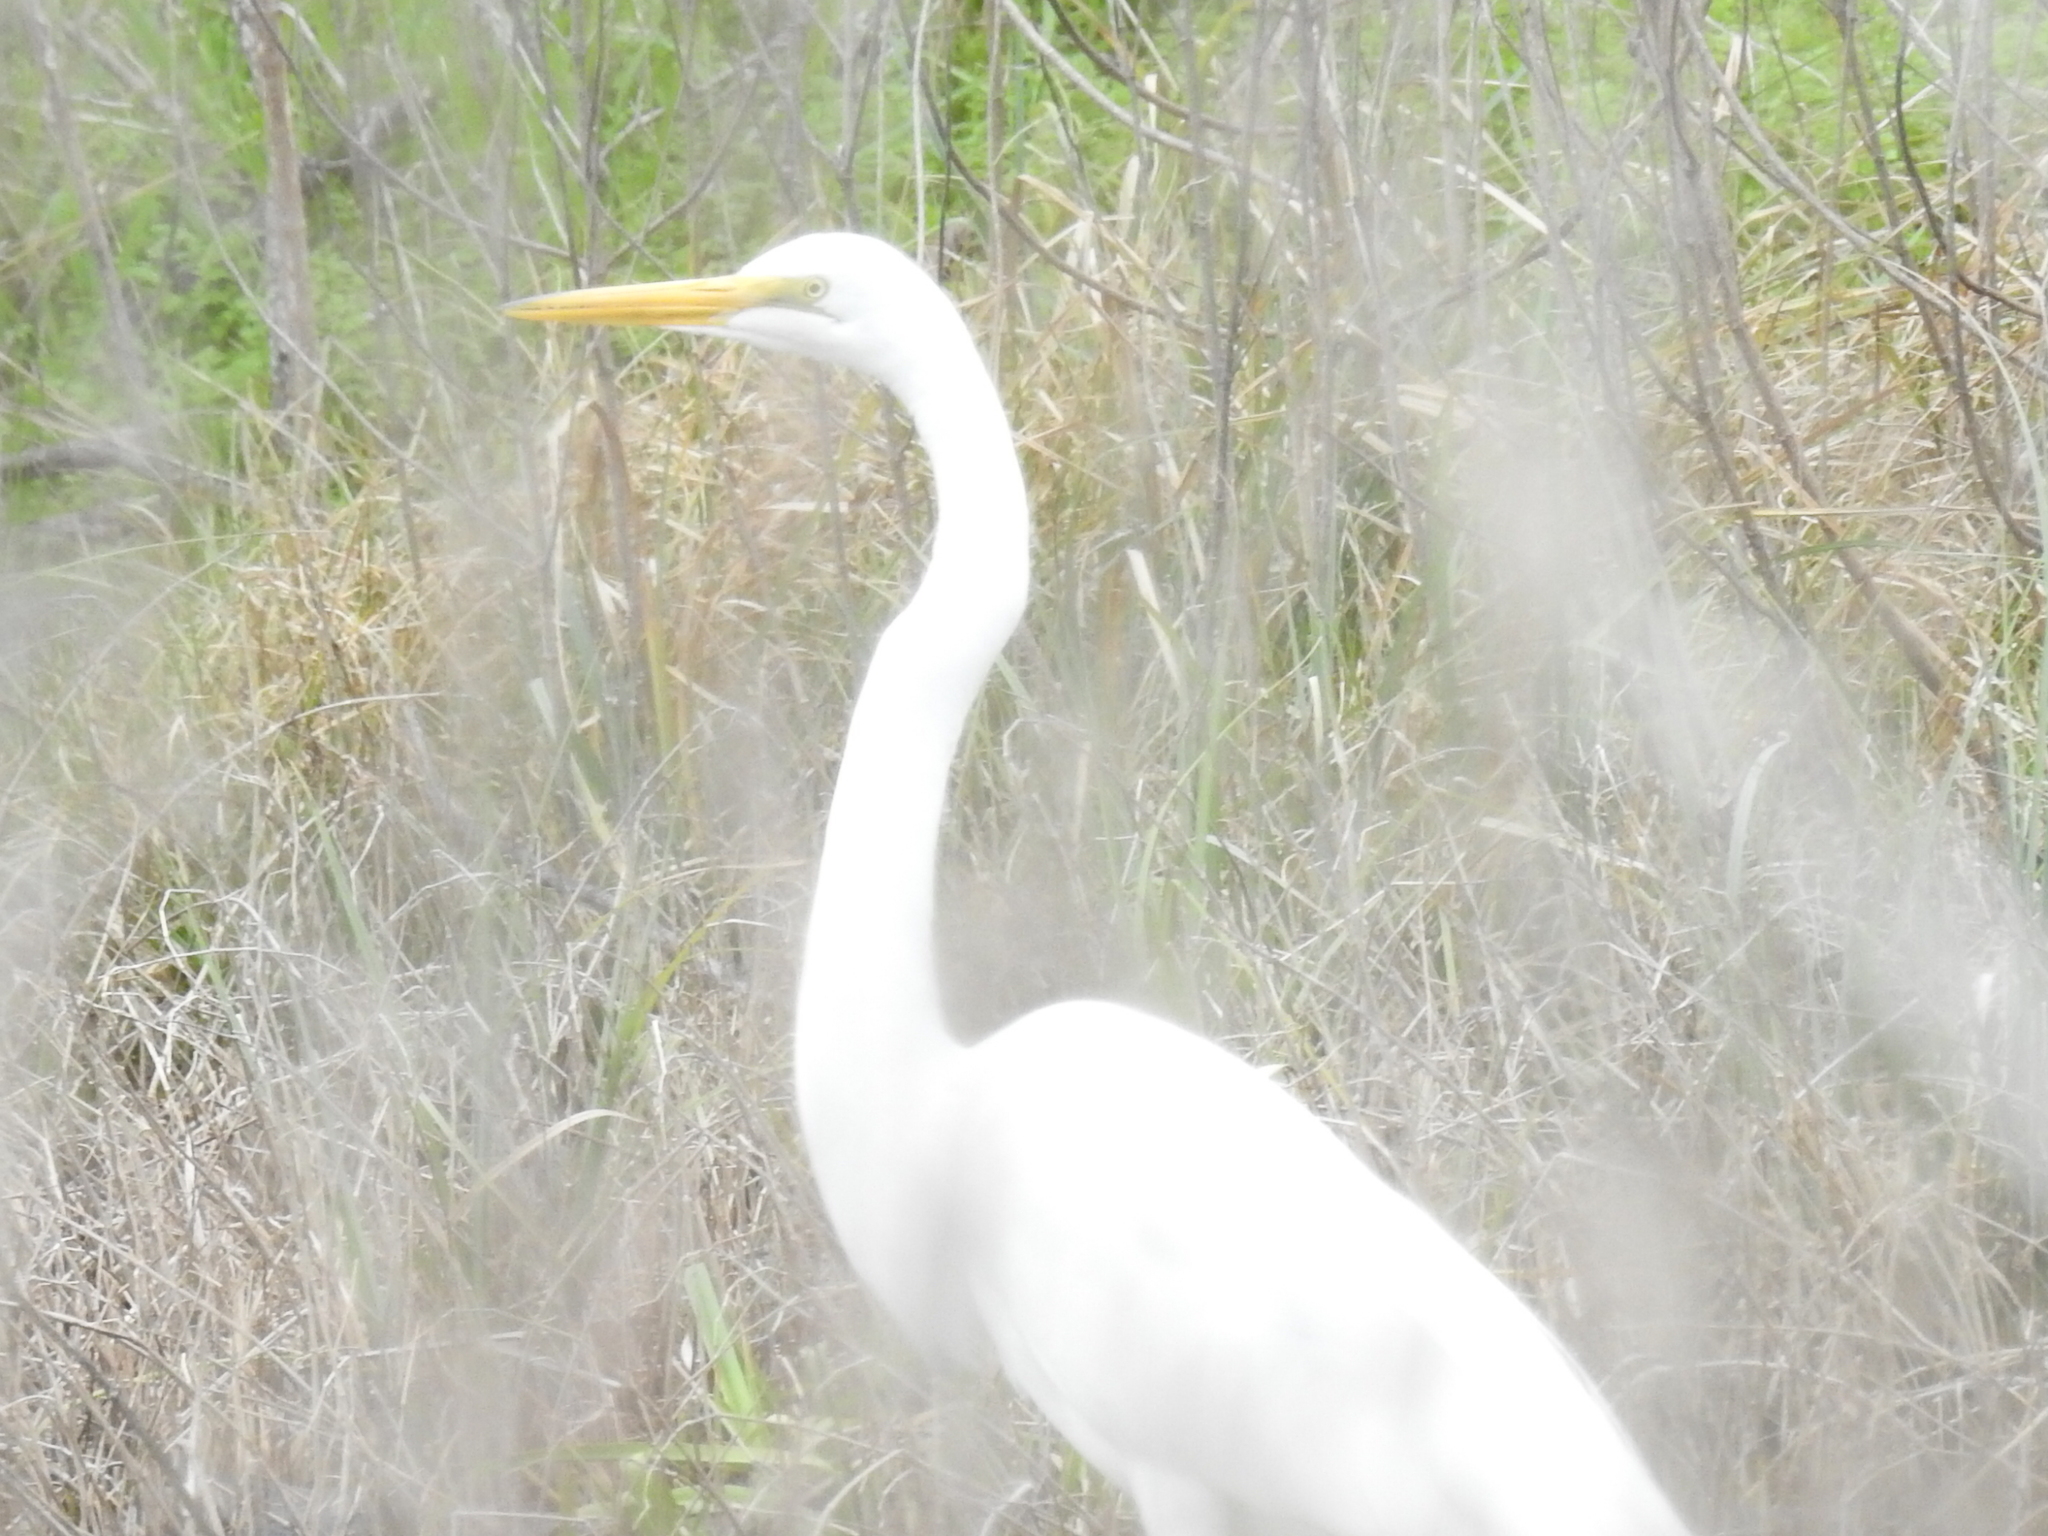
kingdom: Animalia
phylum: Chordata
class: Aves
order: Pelecaniformes
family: Ardeidae
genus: Ardea
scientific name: Ardea alba
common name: Great egret
